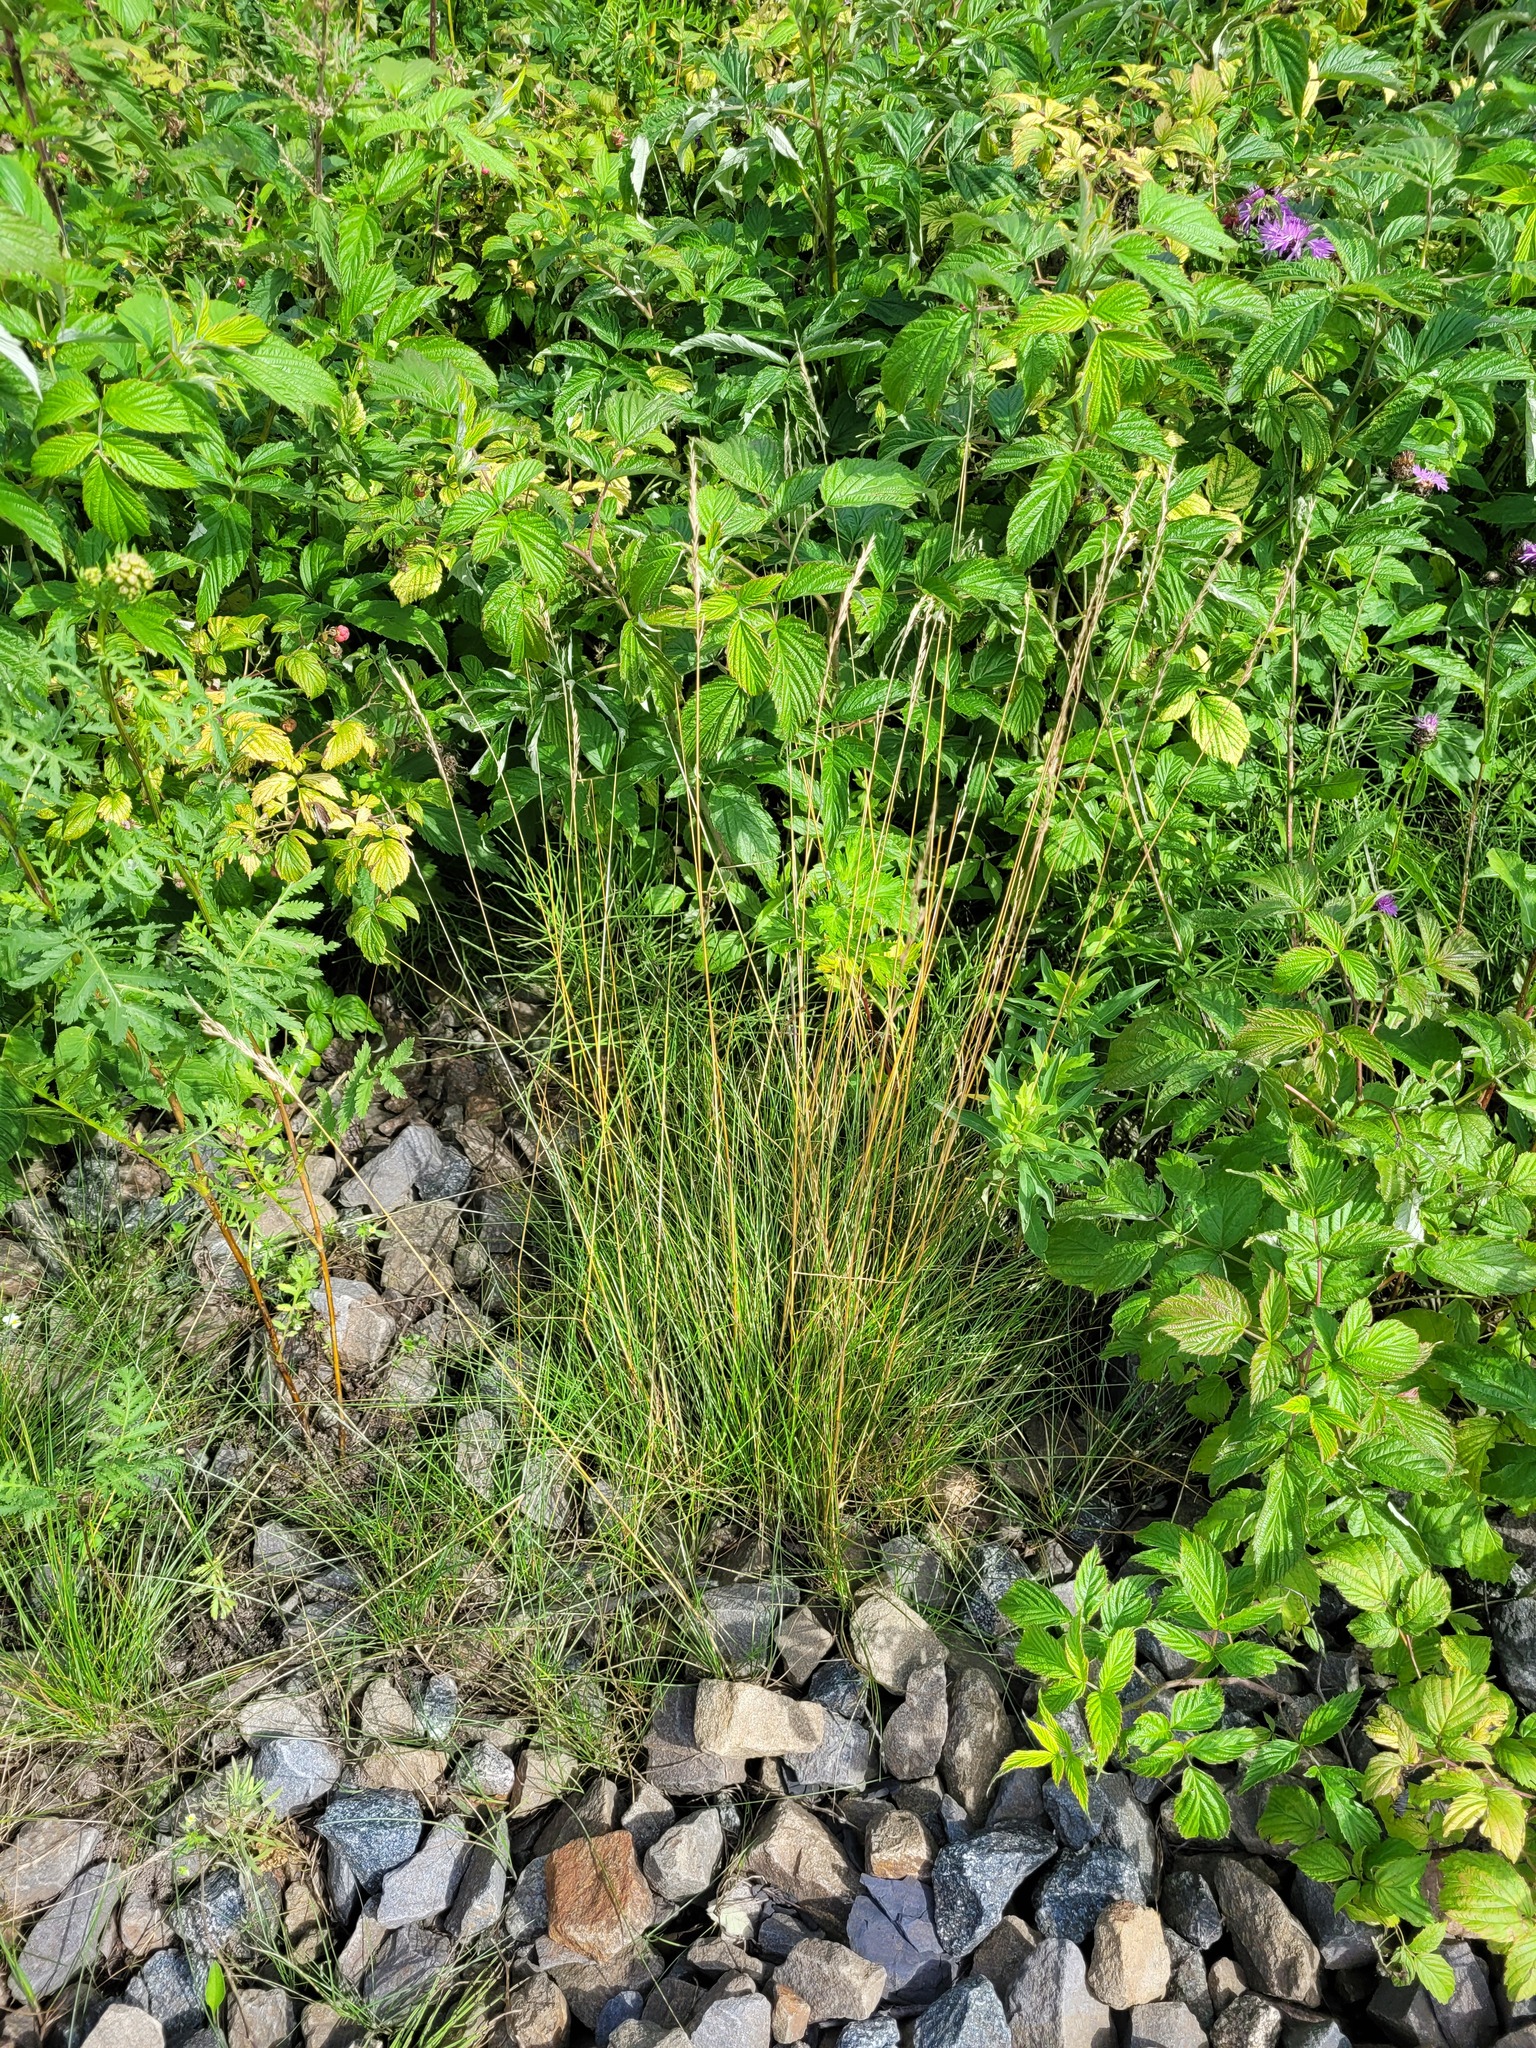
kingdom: Plantae
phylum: Tracheophyta
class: Liliopsida
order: Poales
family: Poaceae
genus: Festuca
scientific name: Festuca rubra
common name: Red fescue
